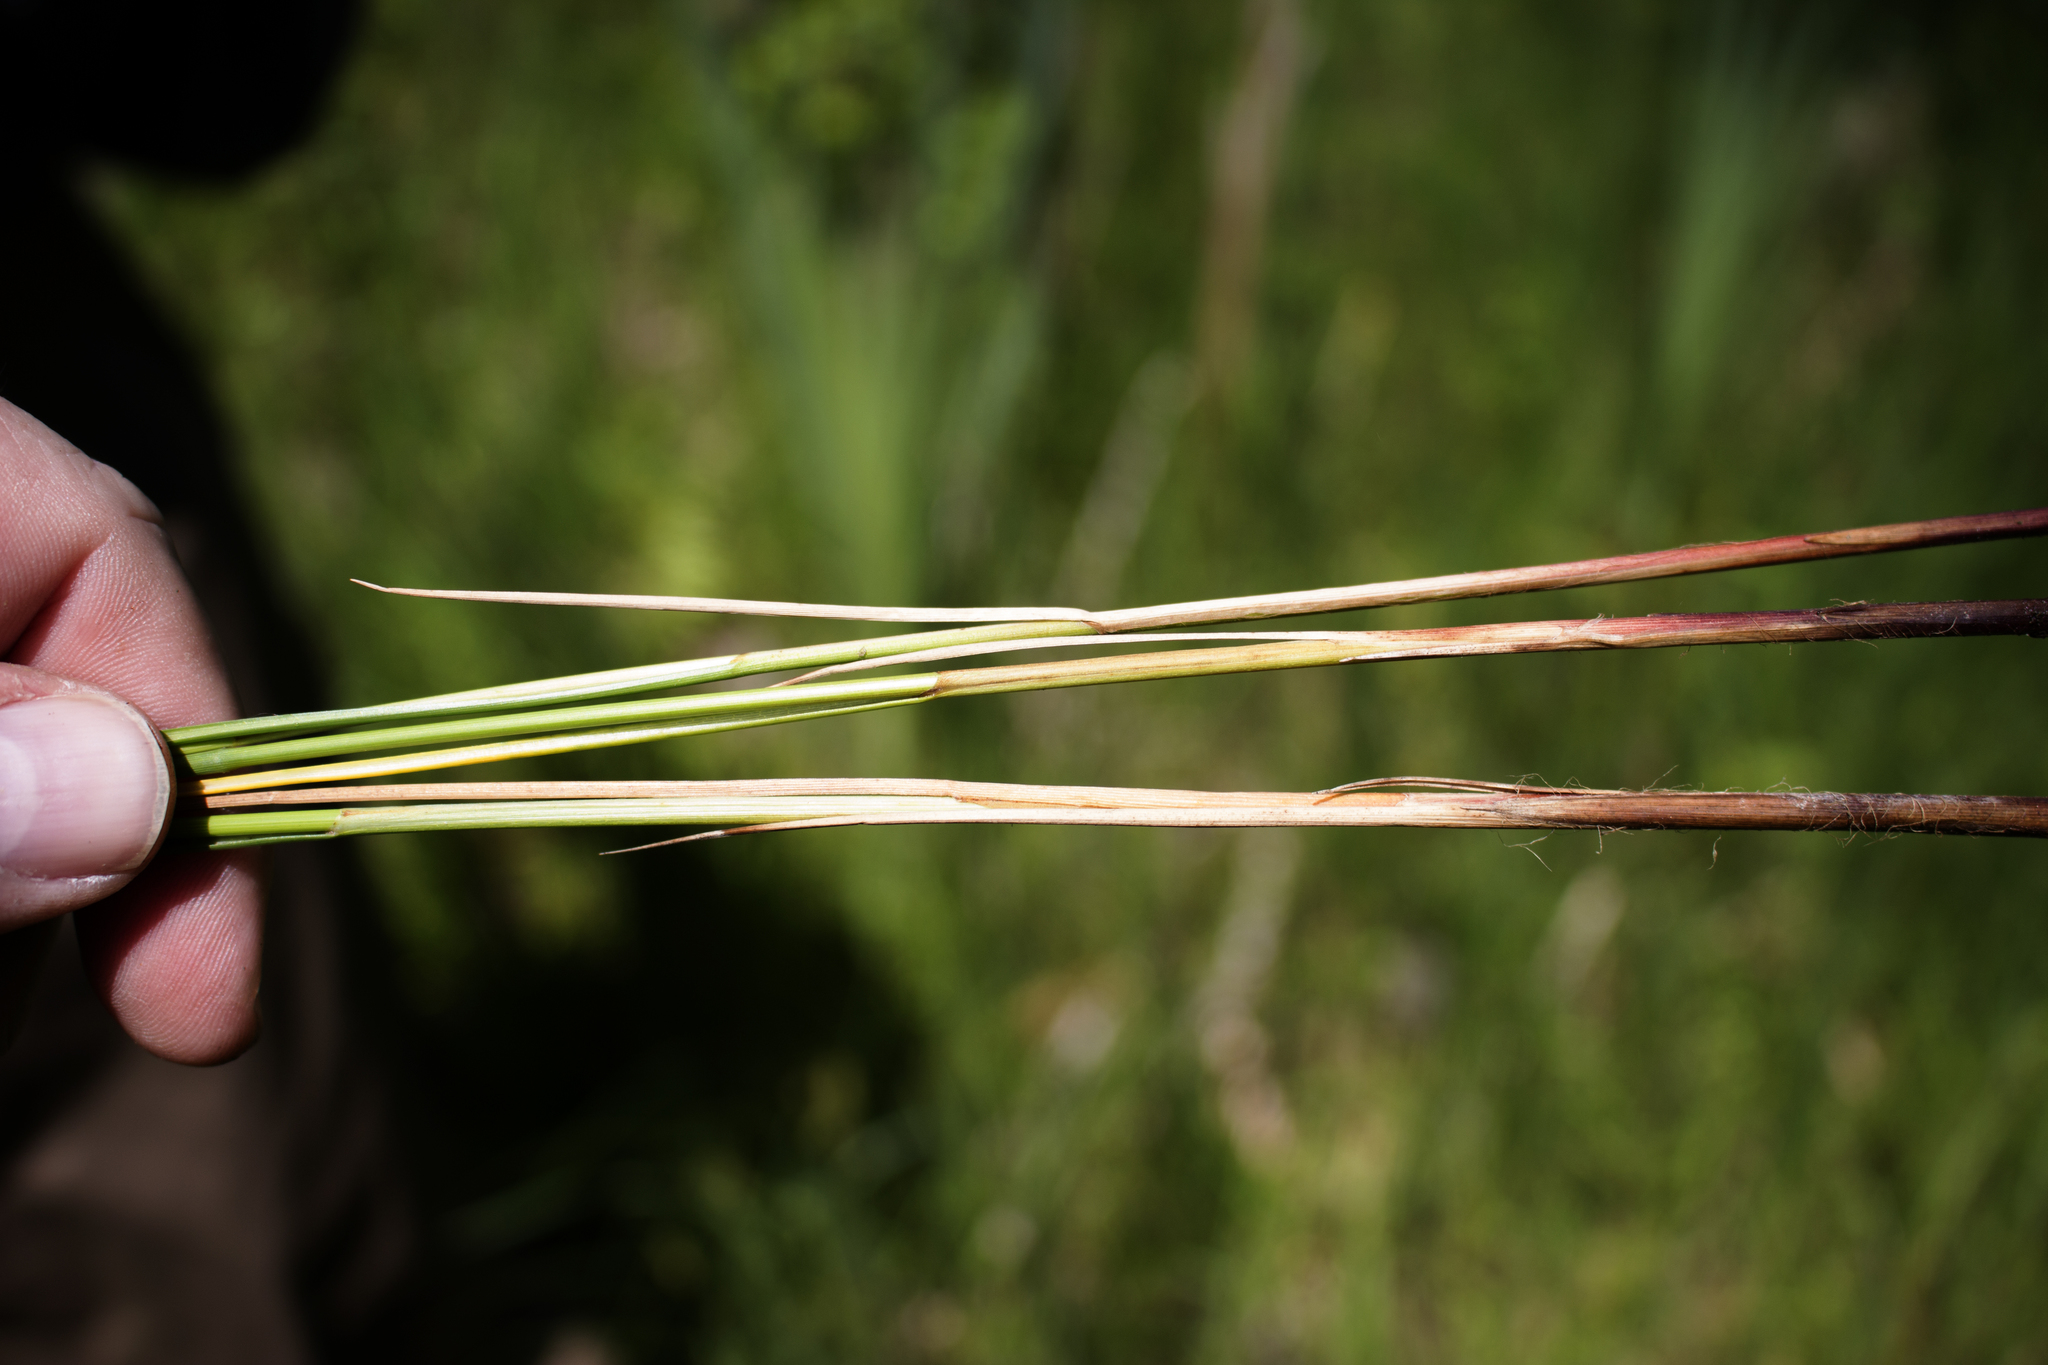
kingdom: Plantae
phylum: Tracheophyta
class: Liliopsida
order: Poales
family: Cyperaceae
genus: Carex
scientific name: Carex lasiocarpa
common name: Slender sedge
